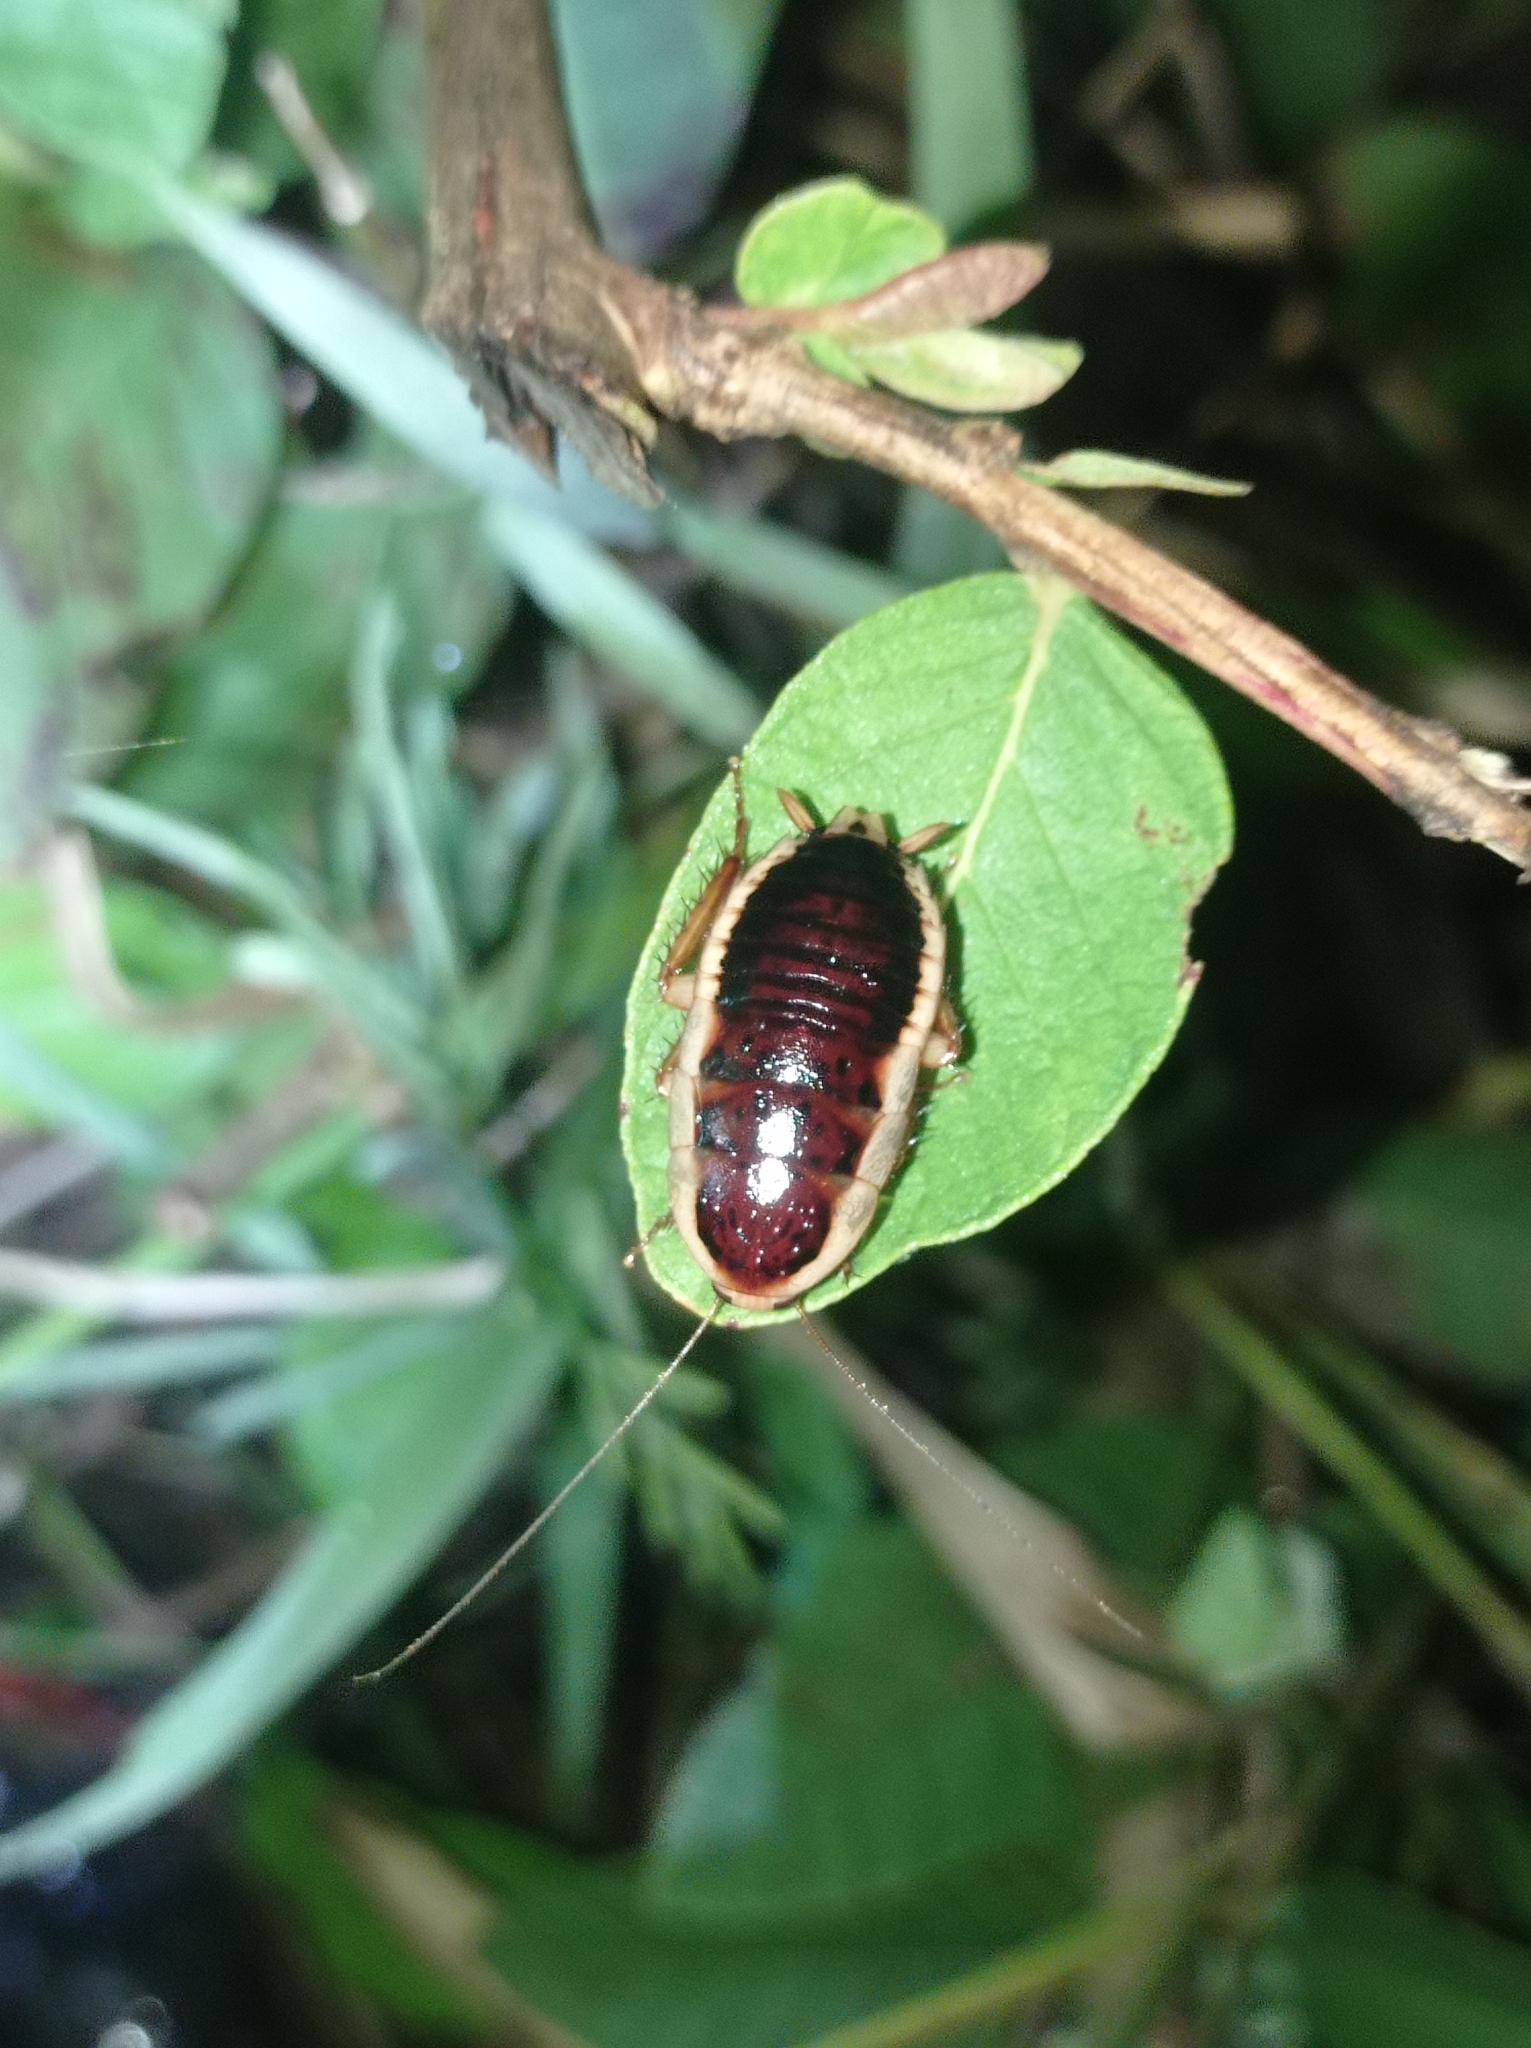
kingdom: Animalia
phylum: Arthropoda
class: Insecta
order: Blattodea
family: Blattidae
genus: Melanozosteria
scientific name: Melanozosteria soror
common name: White-edged wingless cockroach
